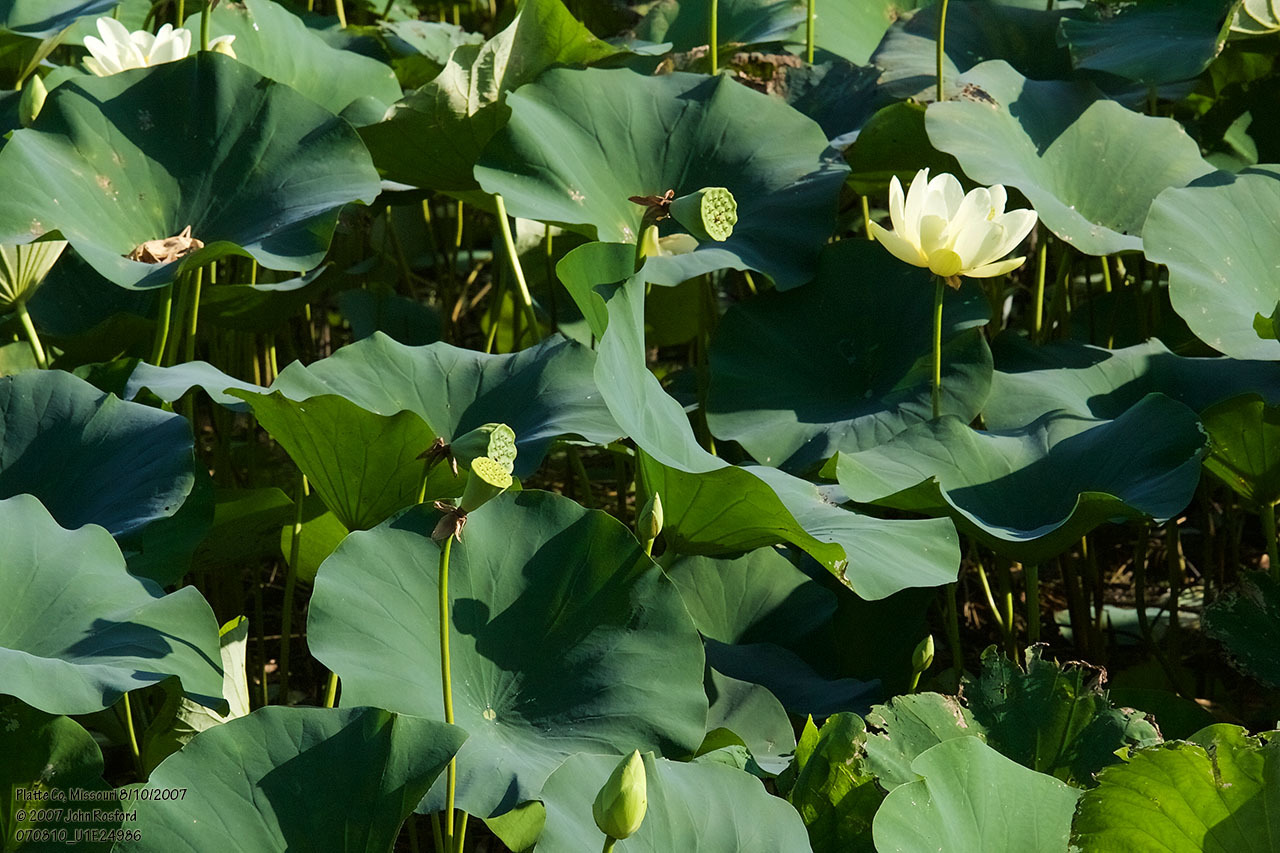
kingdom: Plantae
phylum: Tracheophyta
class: Magnoliopsida
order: Proteales
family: Nelumbonaceae
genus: Nelumbo
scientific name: Nelumbo lutea
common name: American lotus
